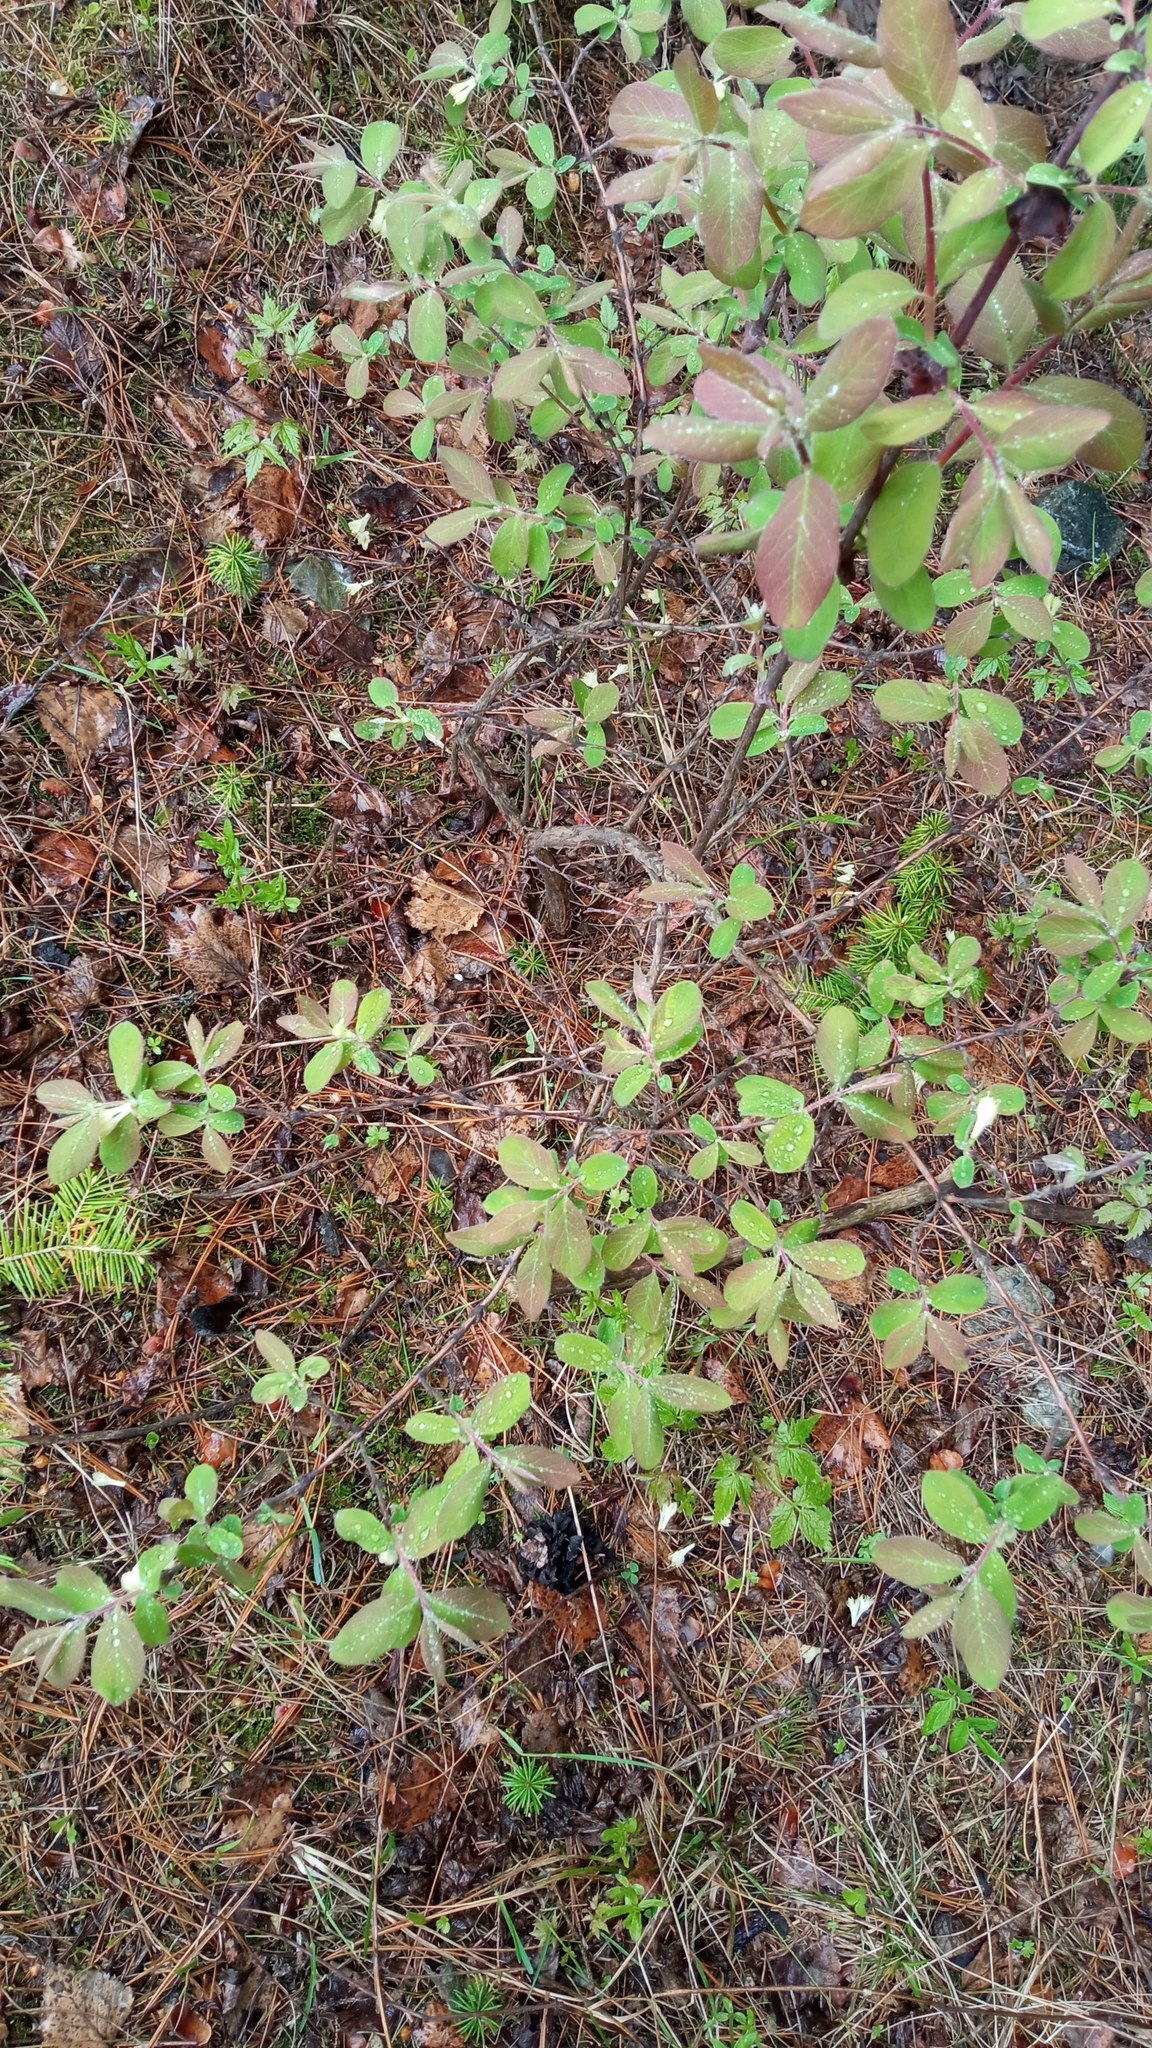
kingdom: Plantae
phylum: Tracheophyta
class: Magnoliopsida
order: Dipsacales
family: Caprifoliaceae
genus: Lonicera
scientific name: Lonicera caerulea
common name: Blue honeysuckle
